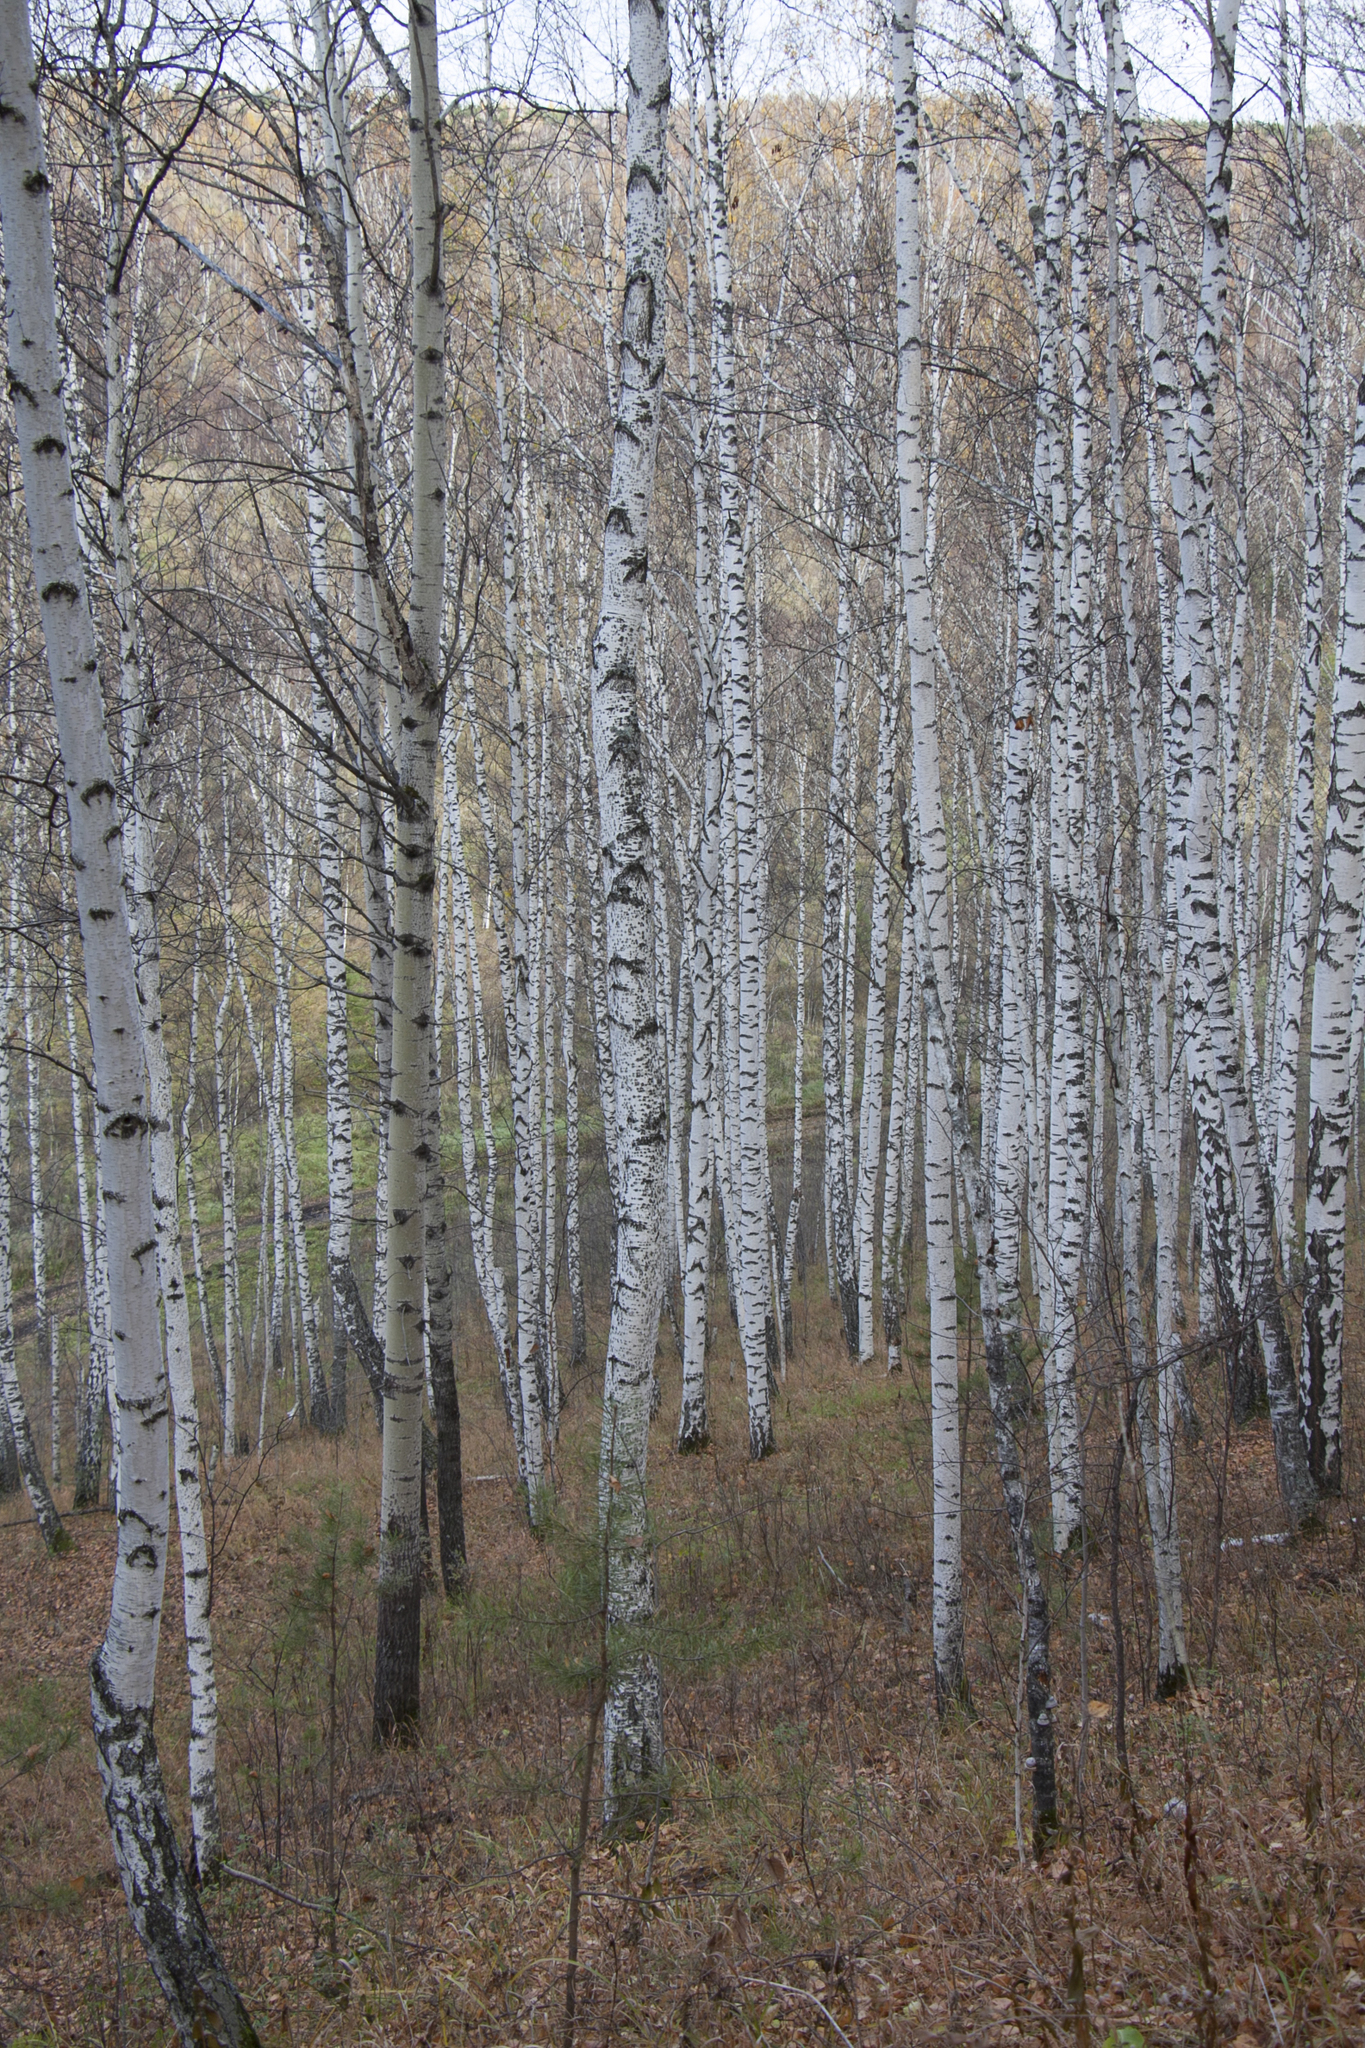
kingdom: Plantae
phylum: Tracheophyta
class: Magnoliopsida
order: Fagales
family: Betulaceae
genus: Betula
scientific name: Betula pendula
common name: Silver birch
